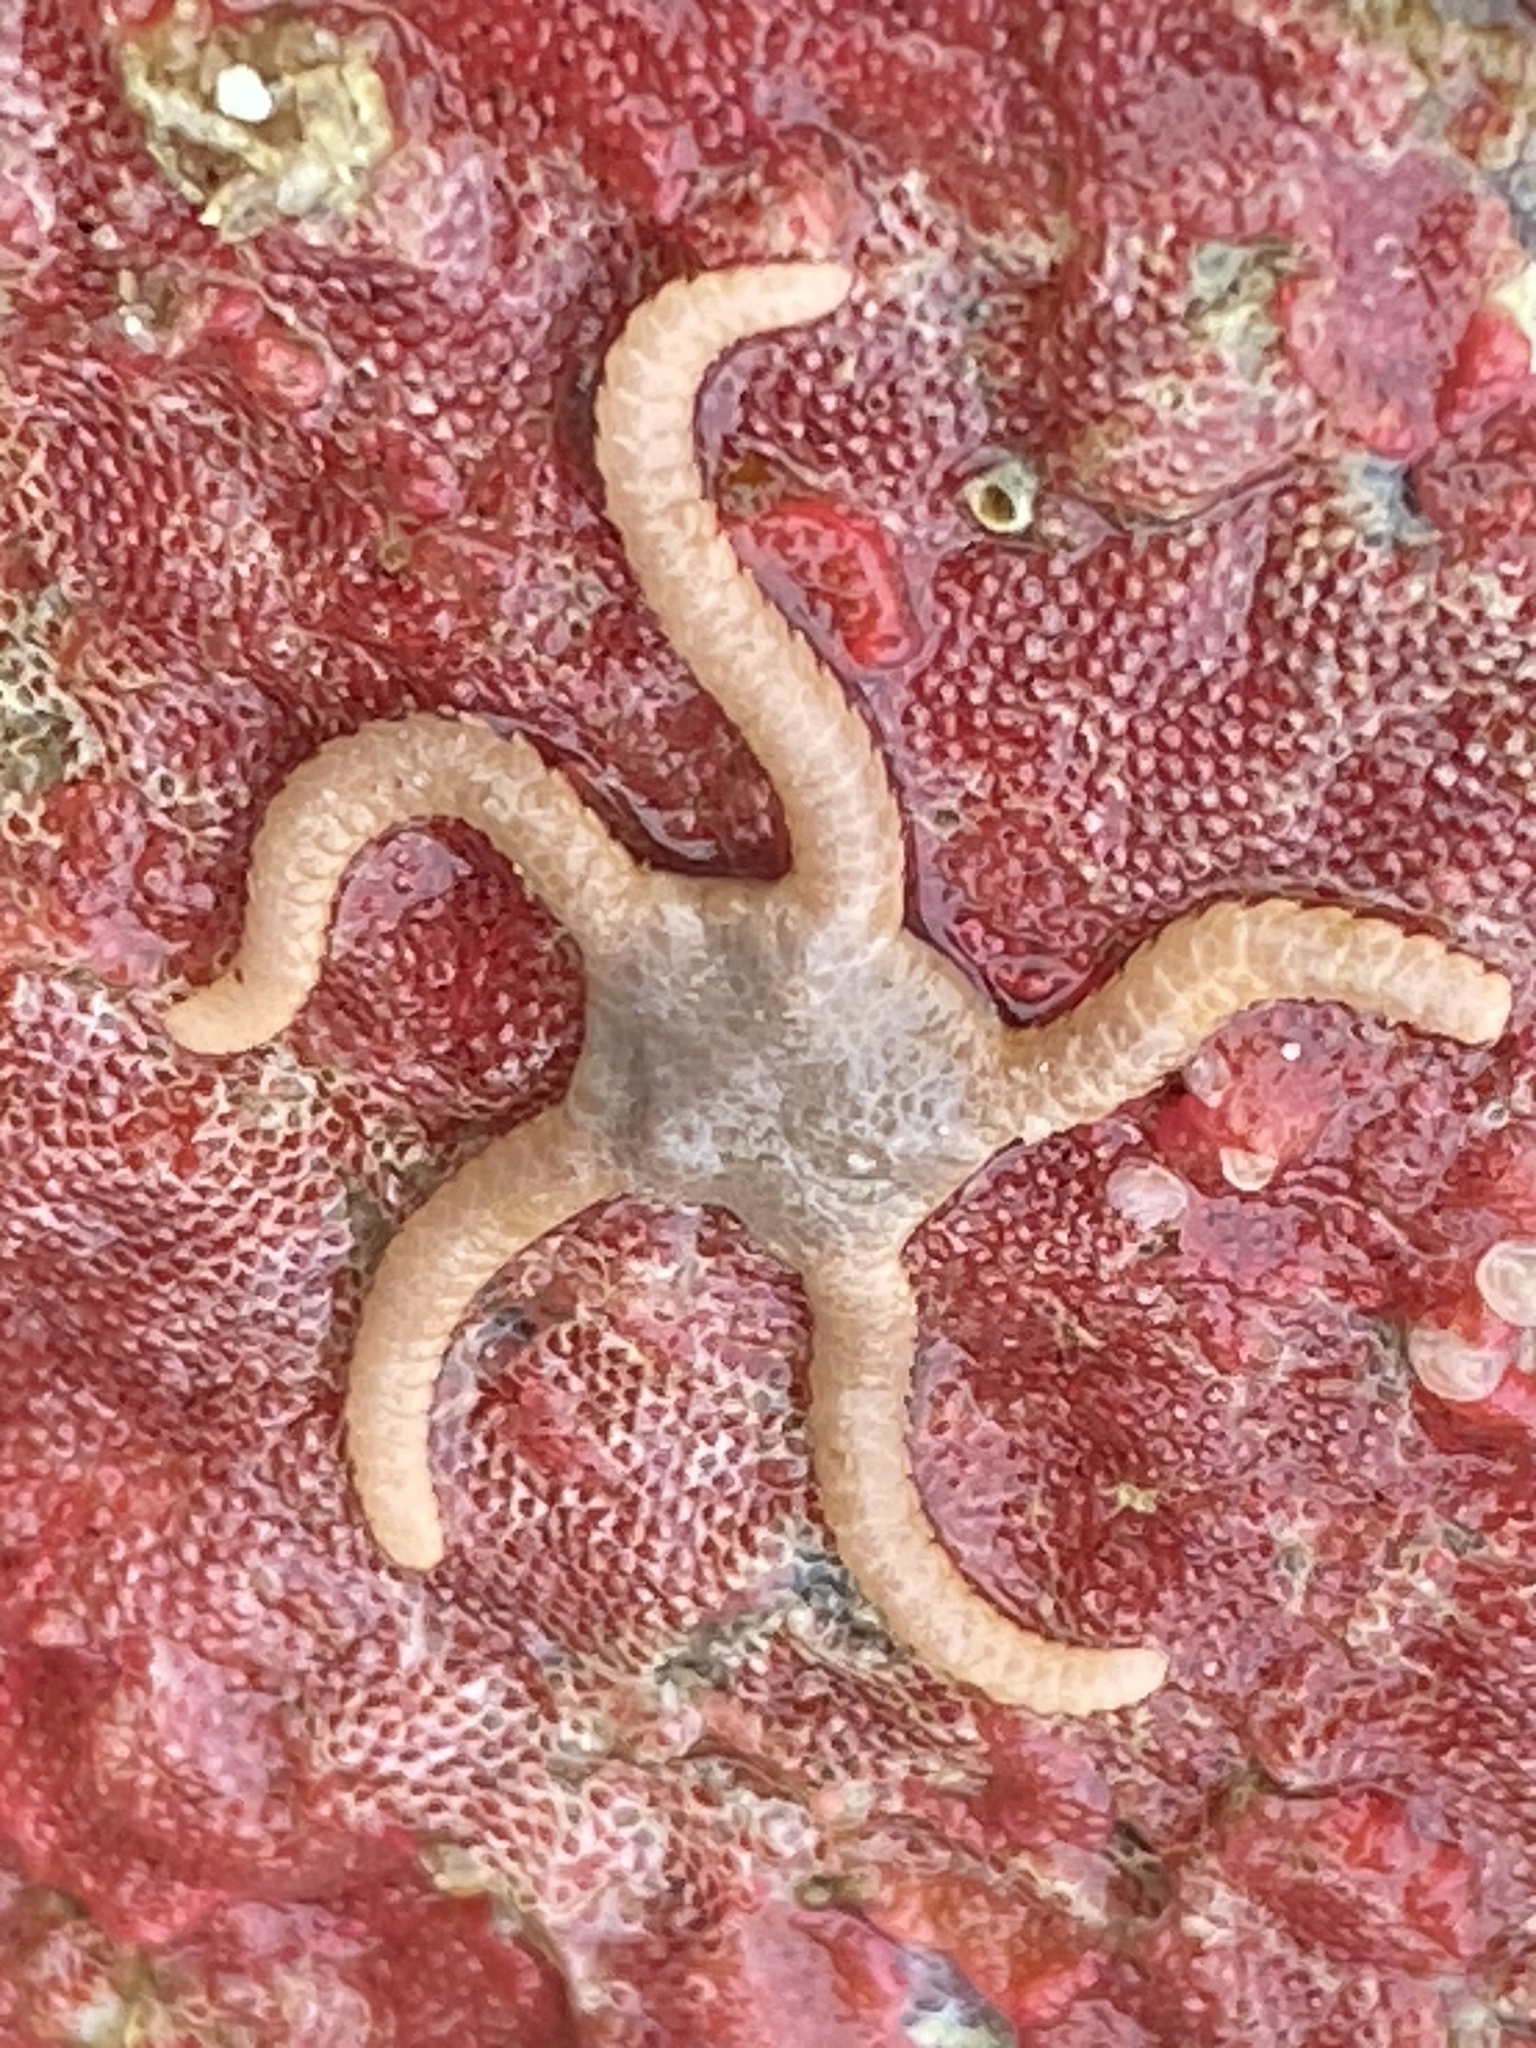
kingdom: Animalia
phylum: Echinodermata
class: Ophiuroidea
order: Amphilepidida
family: Hemieuryalidae
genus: Ophioplocus
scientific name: Ophioplocus esmarki
